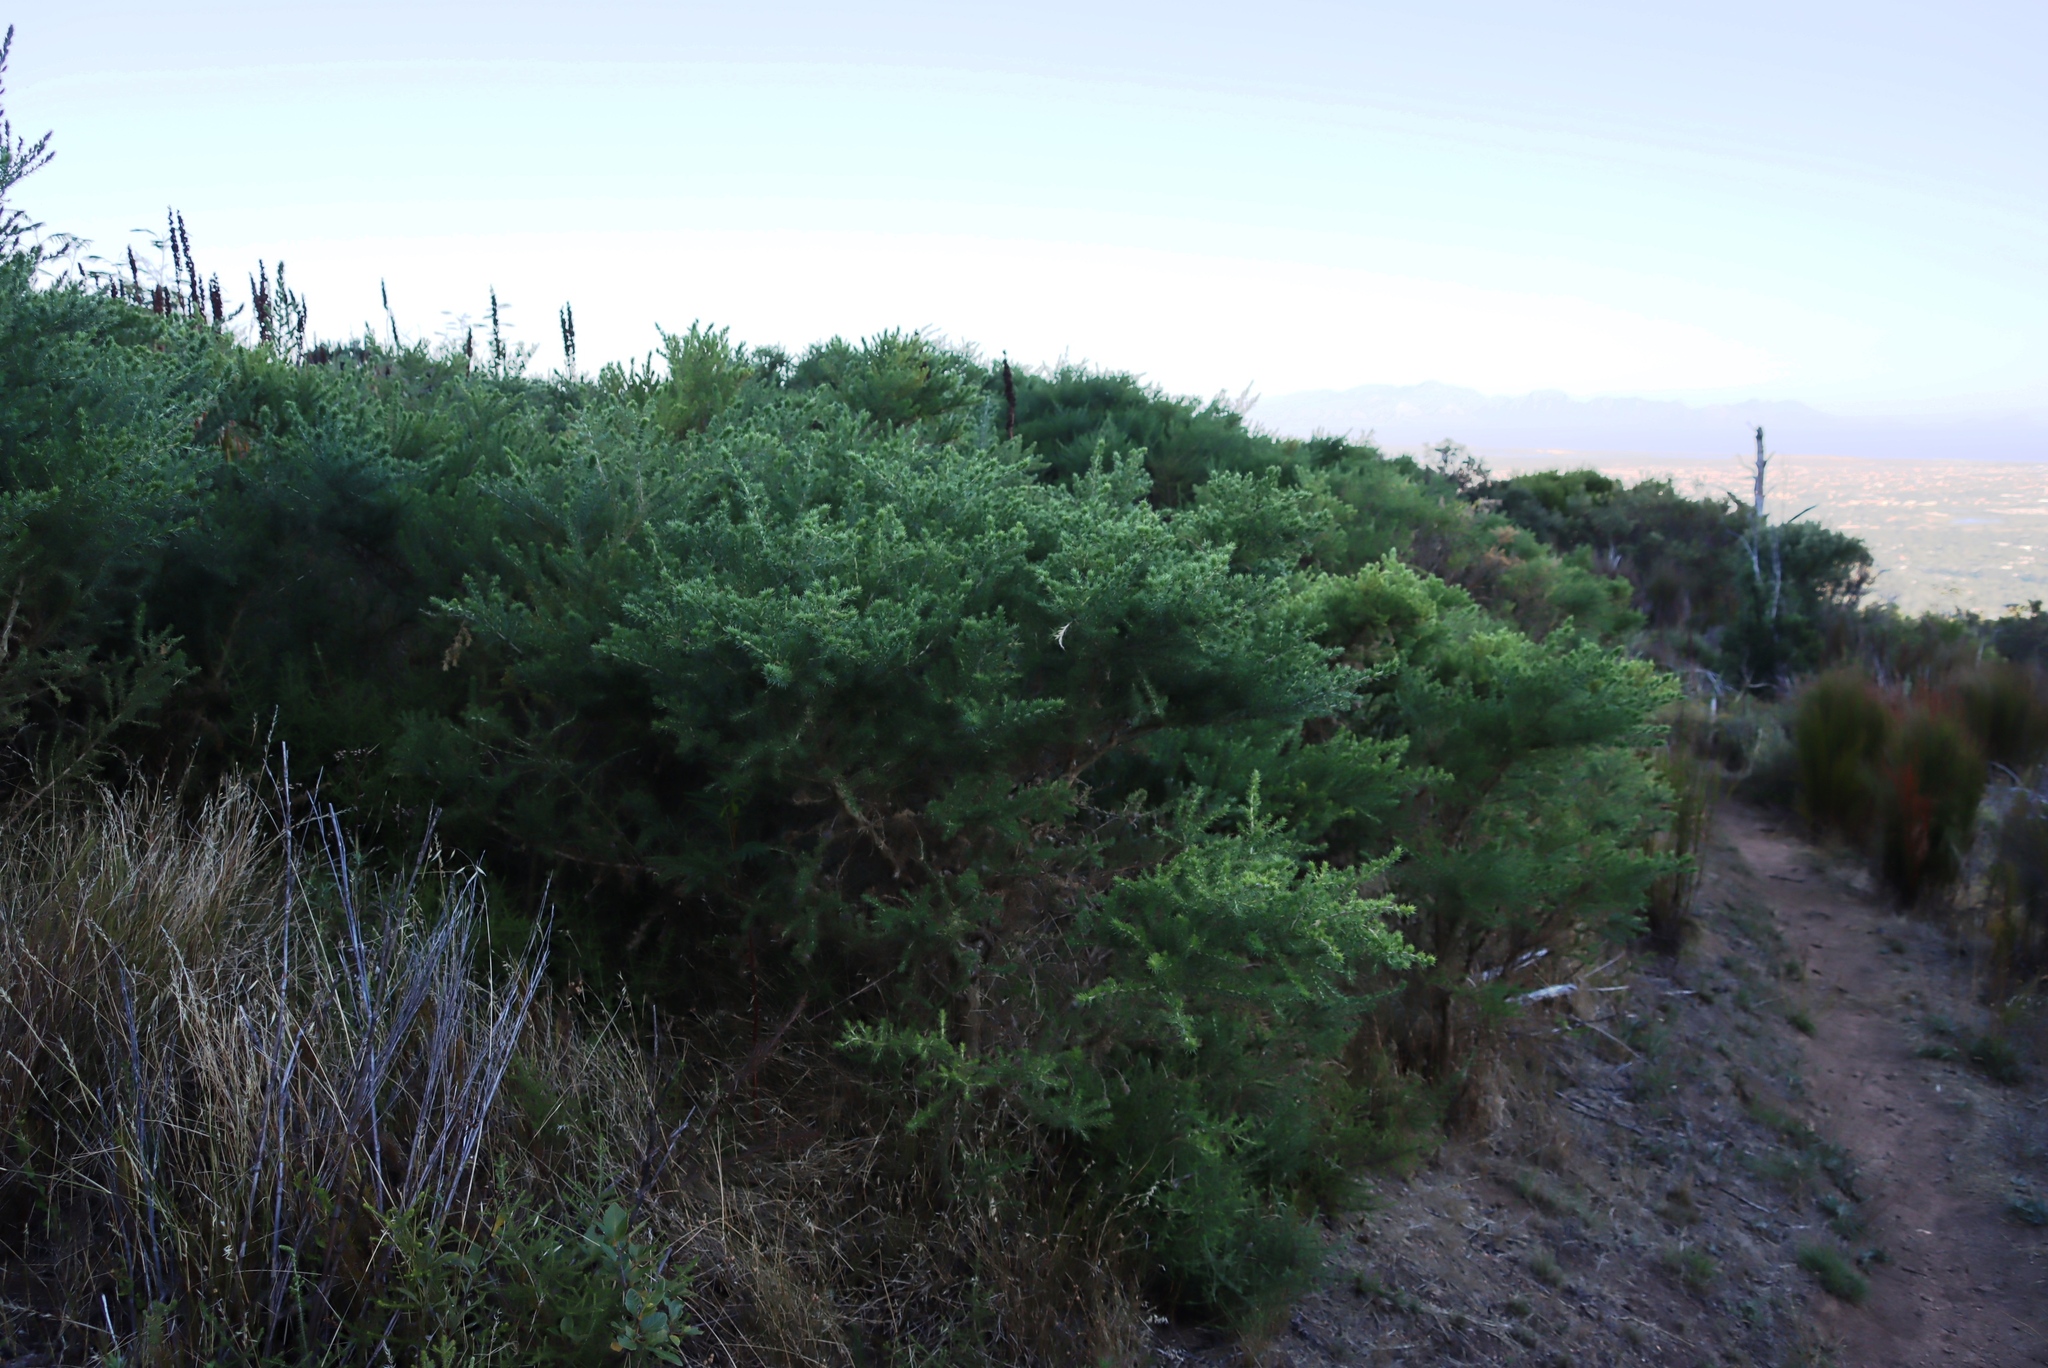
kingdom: Plantae
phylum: Tracheophyta
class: Magnoliopsida
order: Fabales
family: Fabaceae
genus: Aspalathus
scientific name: Aspalathus chenopoda
